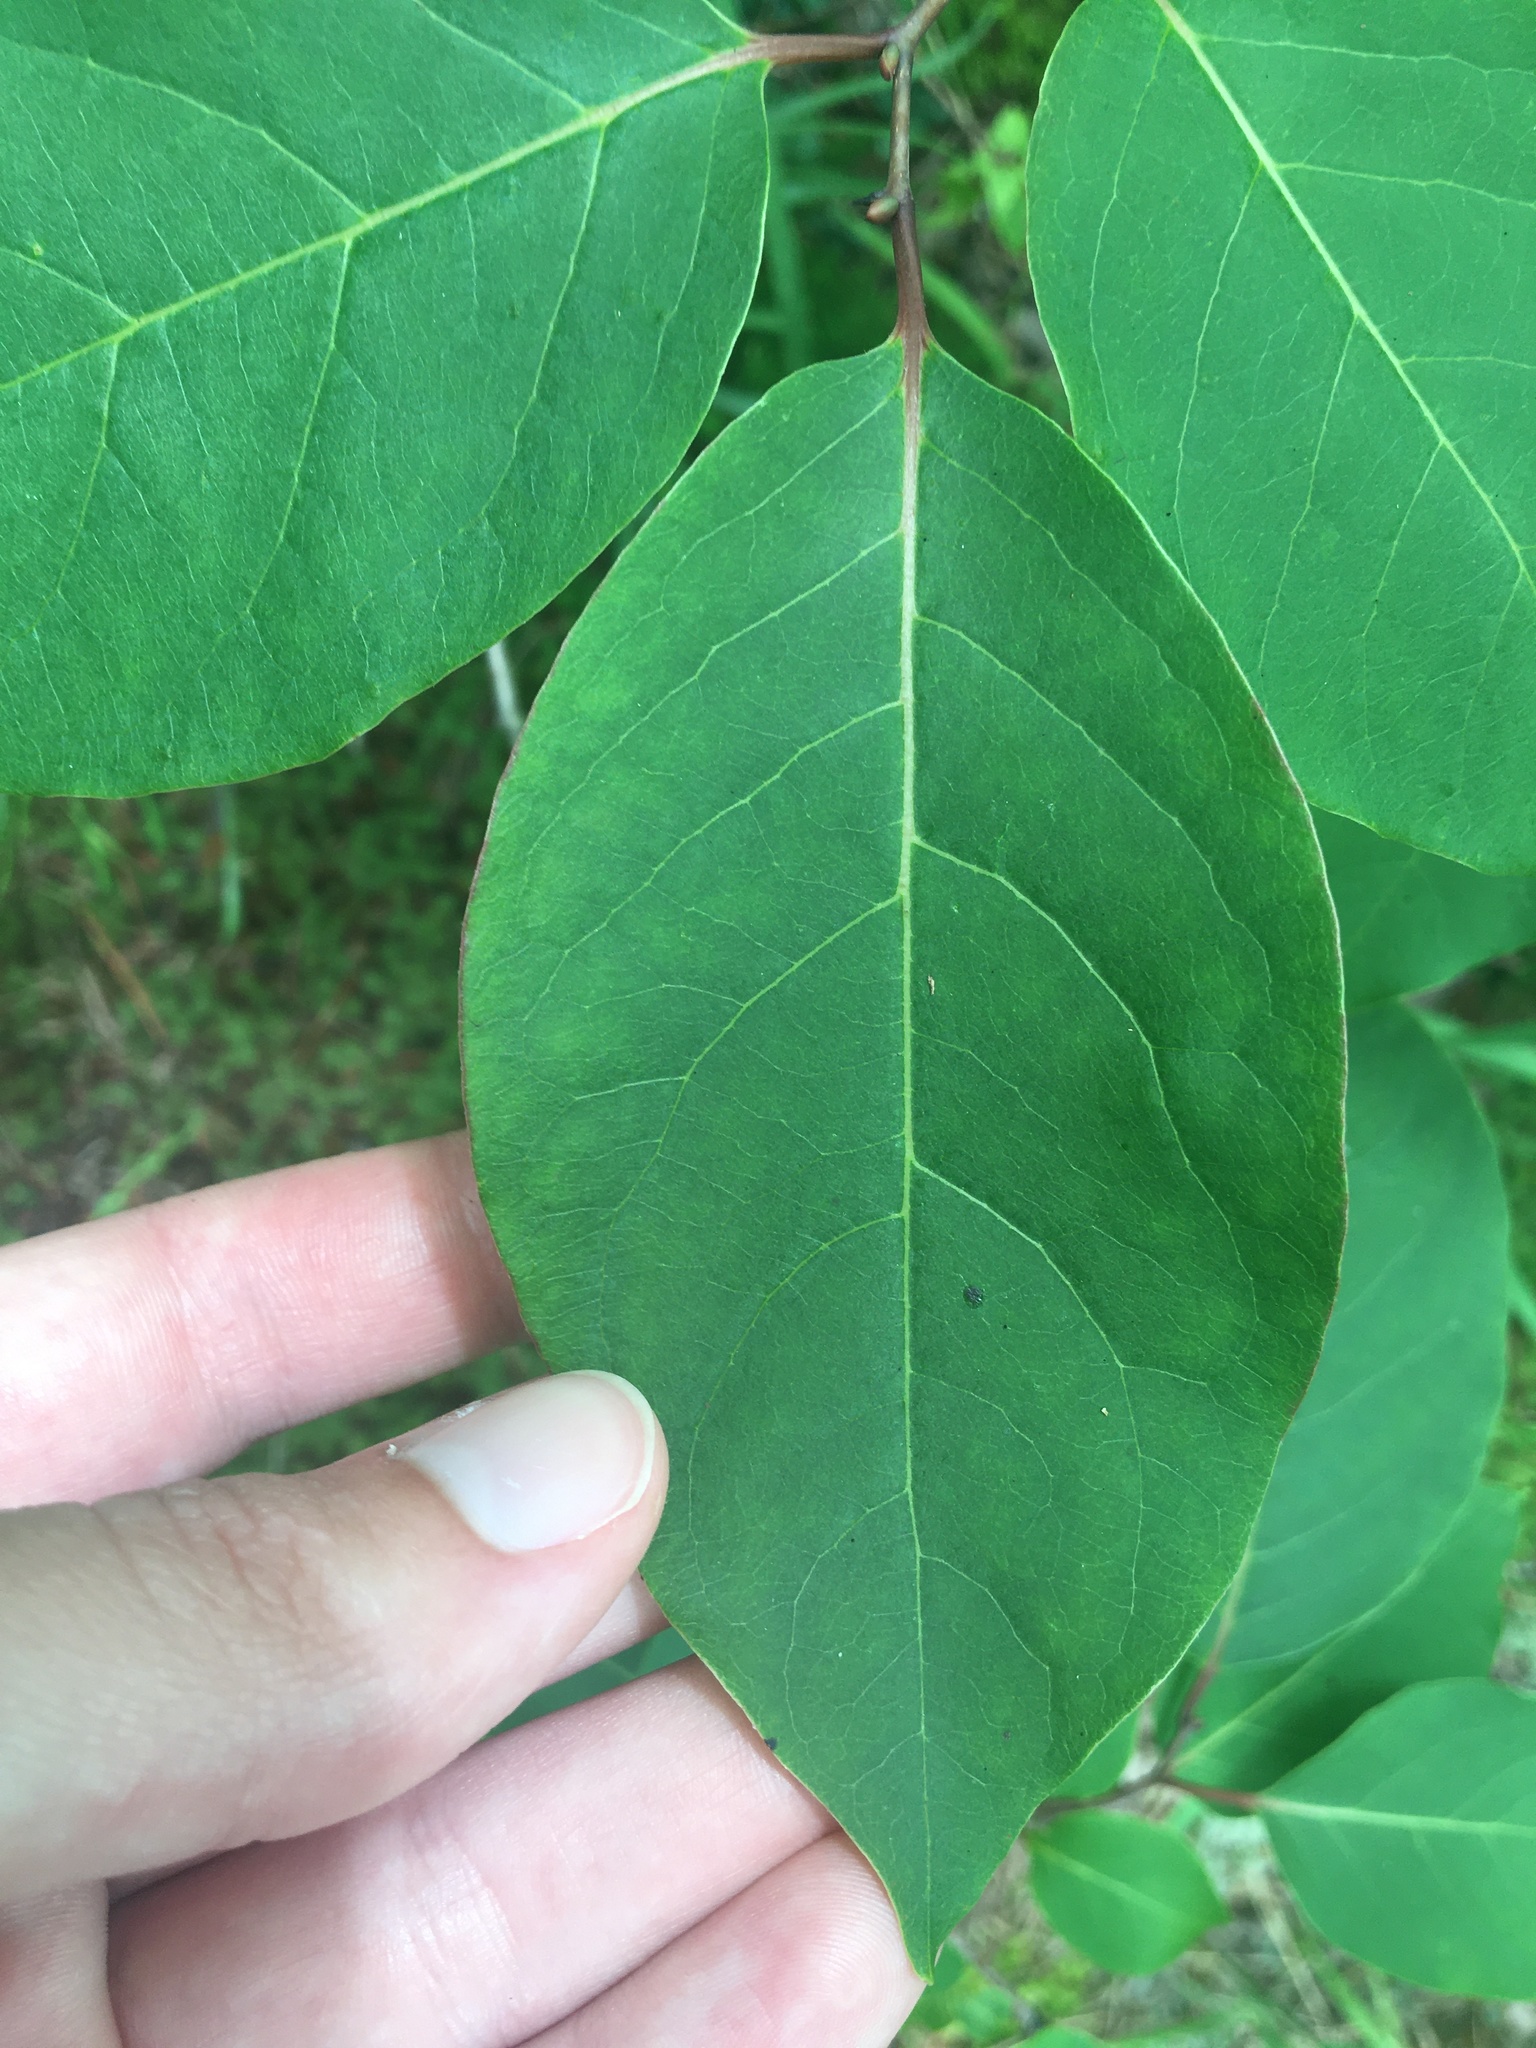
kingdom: Plantae
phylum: Tracheophyta
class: Magnoliopsida
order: Ericales
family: Ebenaceae
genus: Diospyros
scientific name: Diospyros virginiana
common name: Persimmon
